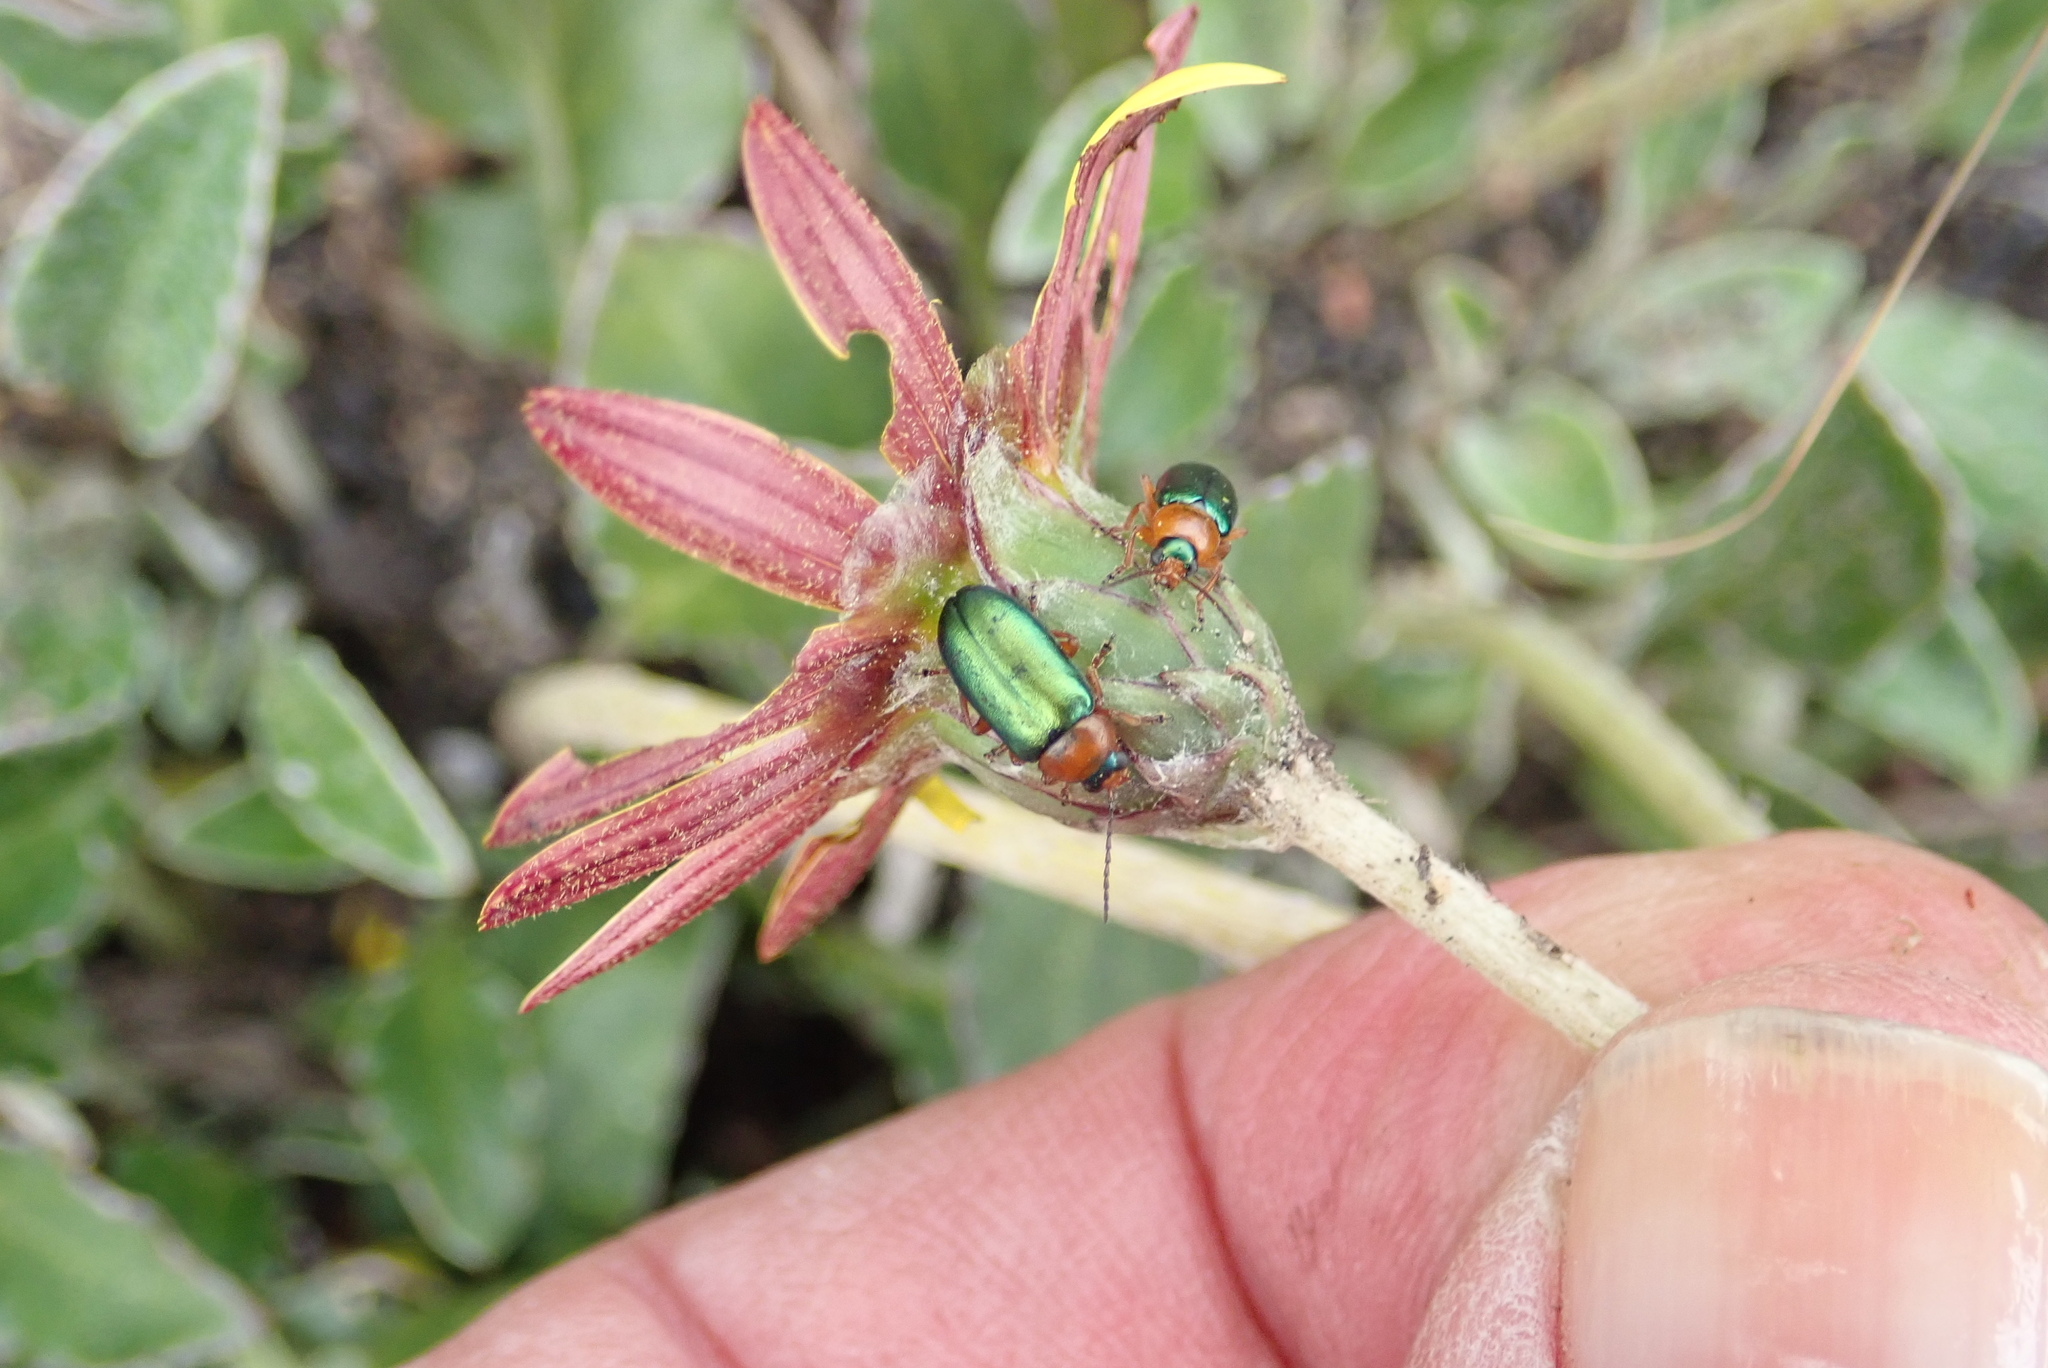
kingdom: Animalia
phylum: Arthropoda
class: Insecta
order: Coleoptera
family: Chrysomelidae
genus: Palaeophylia
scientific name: Palaeophylia
